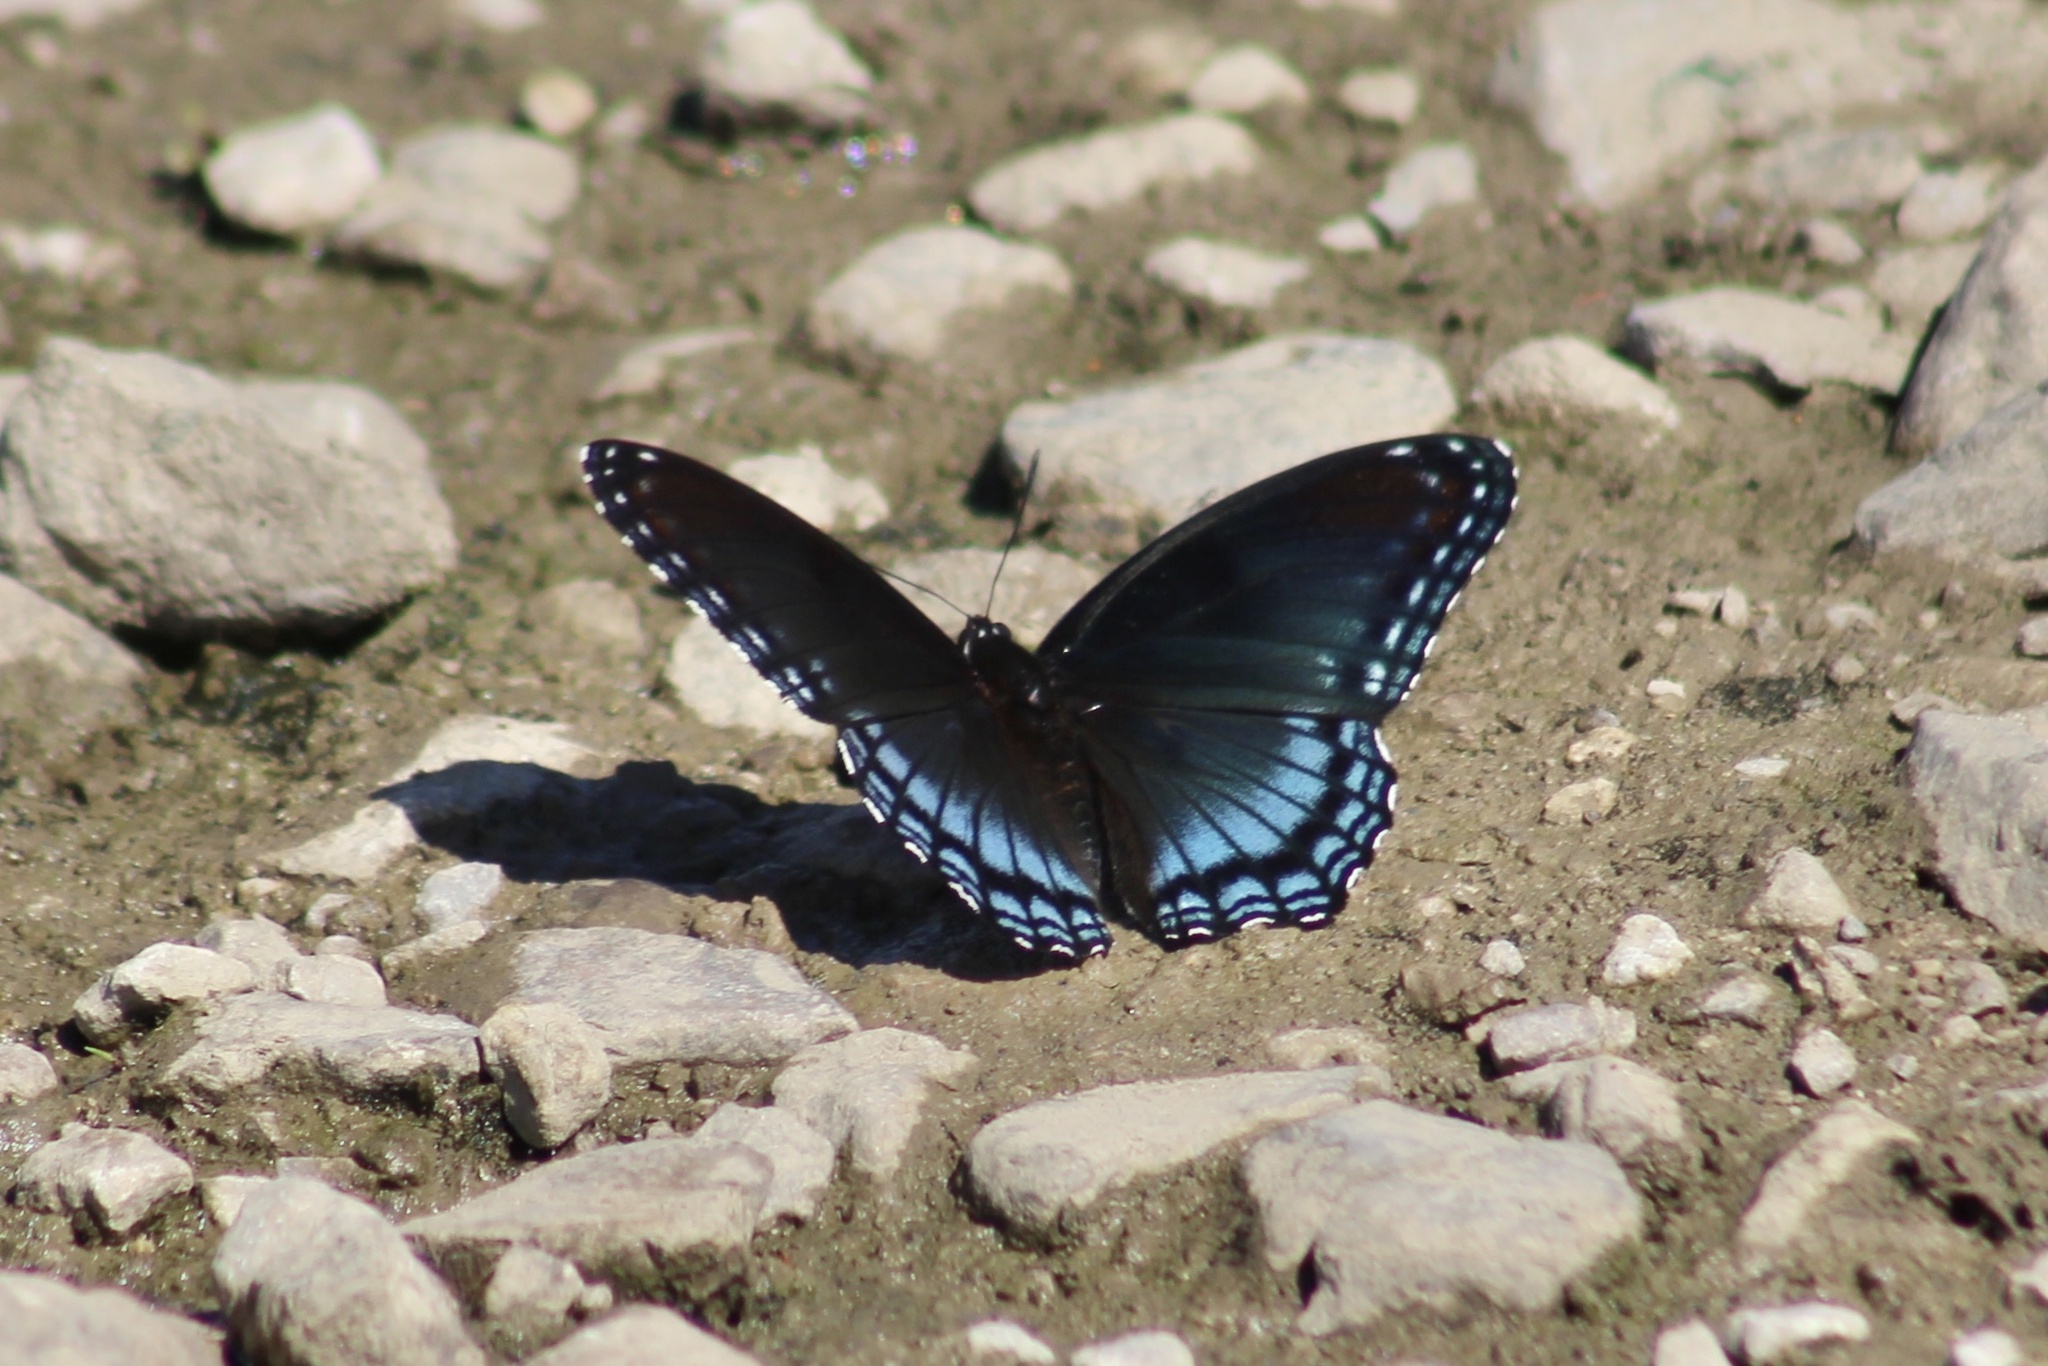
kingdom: Animalia
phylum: Arthropoda
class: Insecta
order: Lepidoptera
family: Nymphalidae
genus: Limenitis
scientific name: Limenitis astyanax
